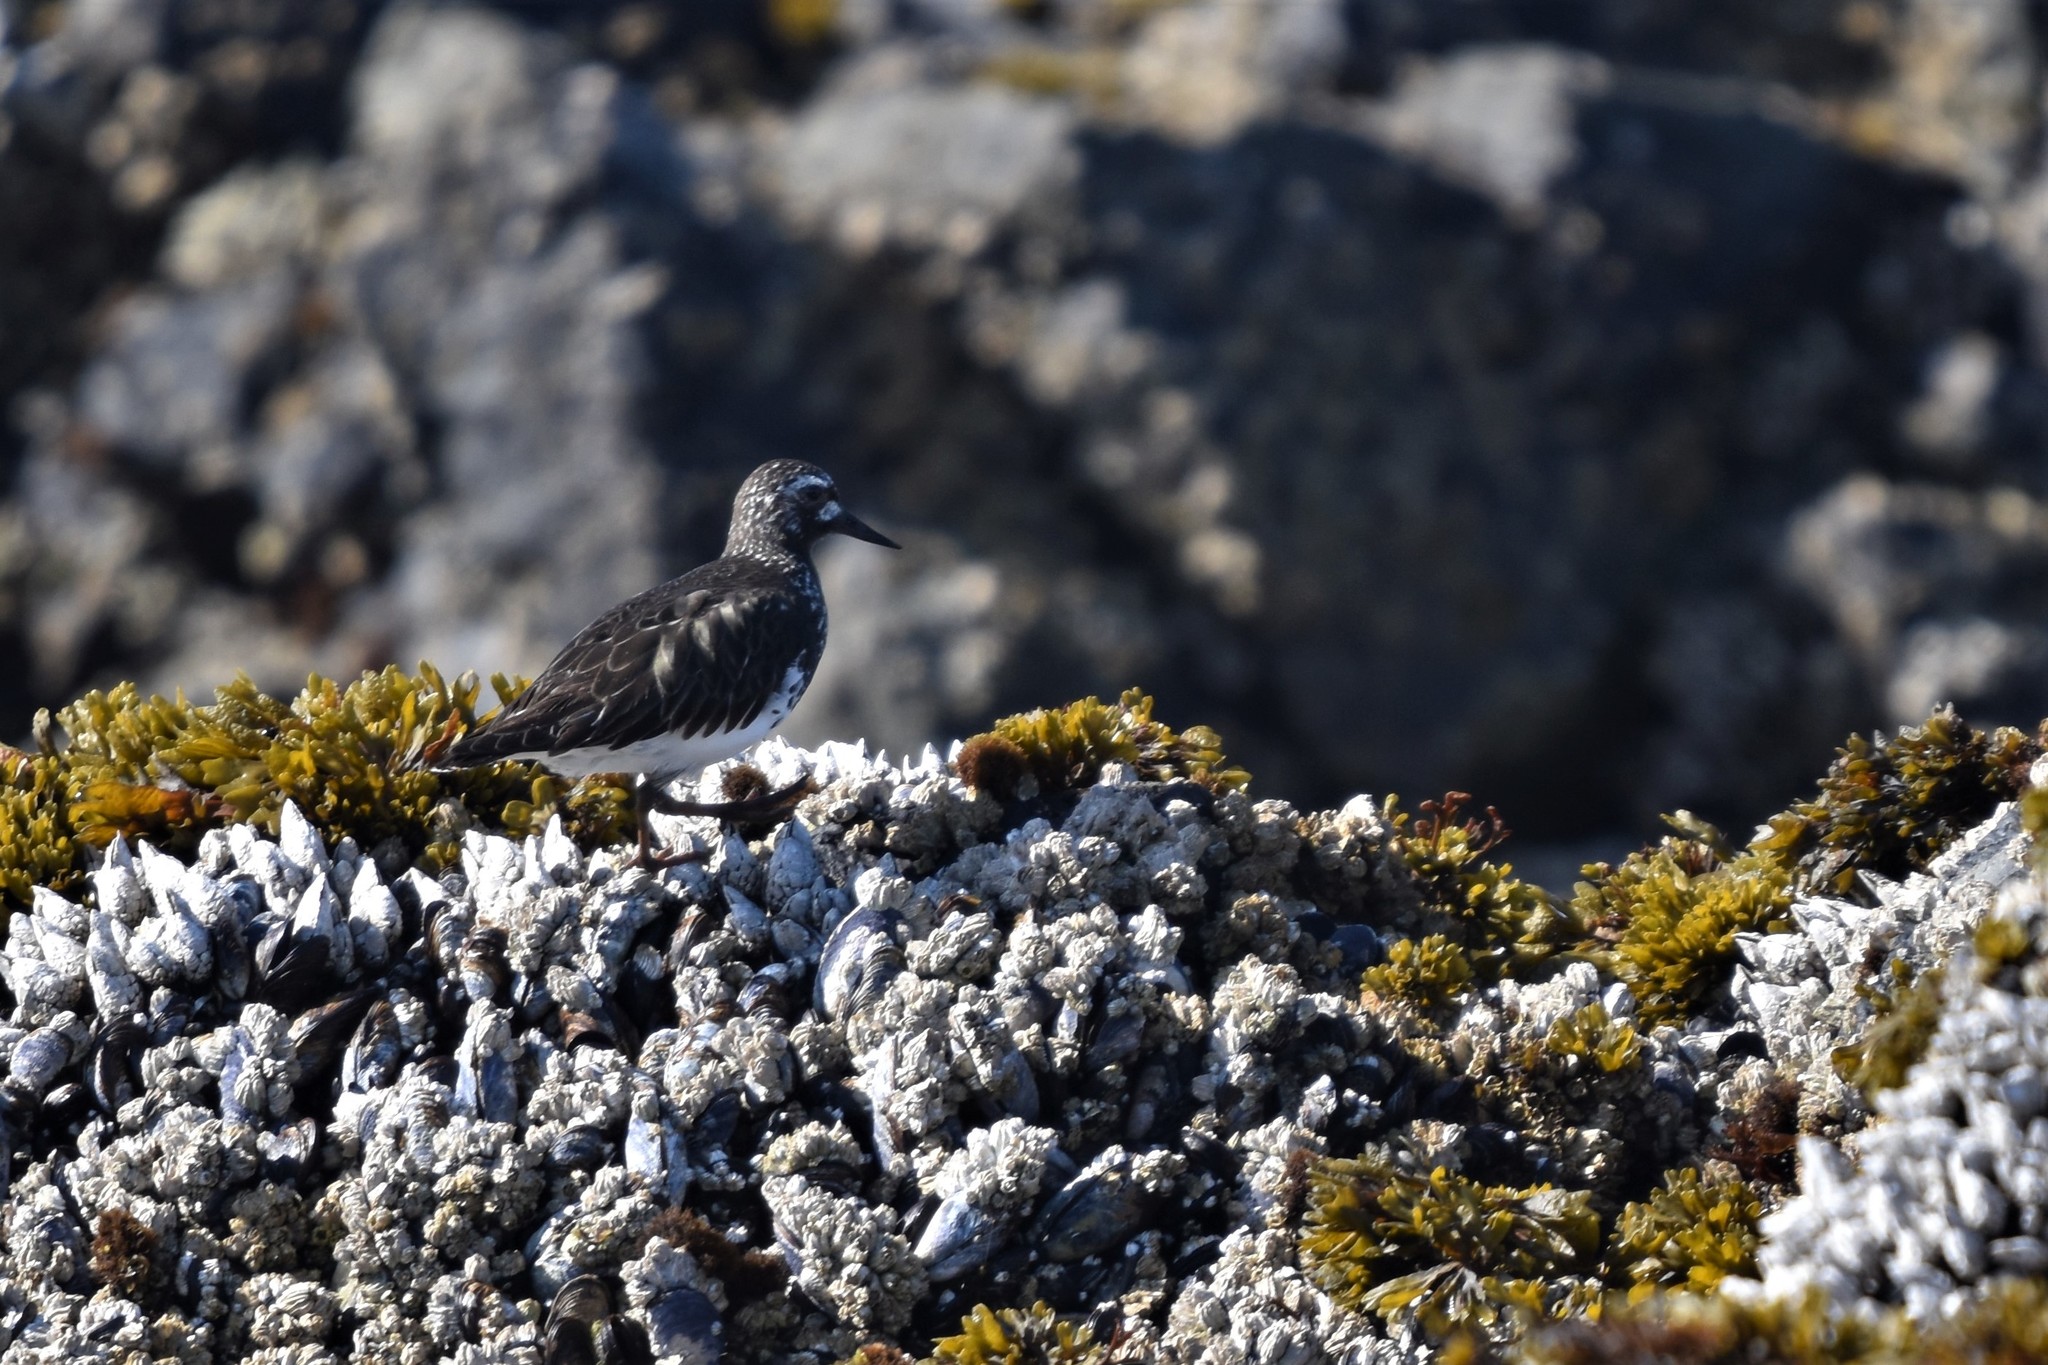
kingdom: Animalia
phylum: Chordata
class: Aves
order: Charadriiformes
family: Scolopacidae
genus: Arenaria
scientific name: Arenaria melanocephala
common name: Black turnstone
